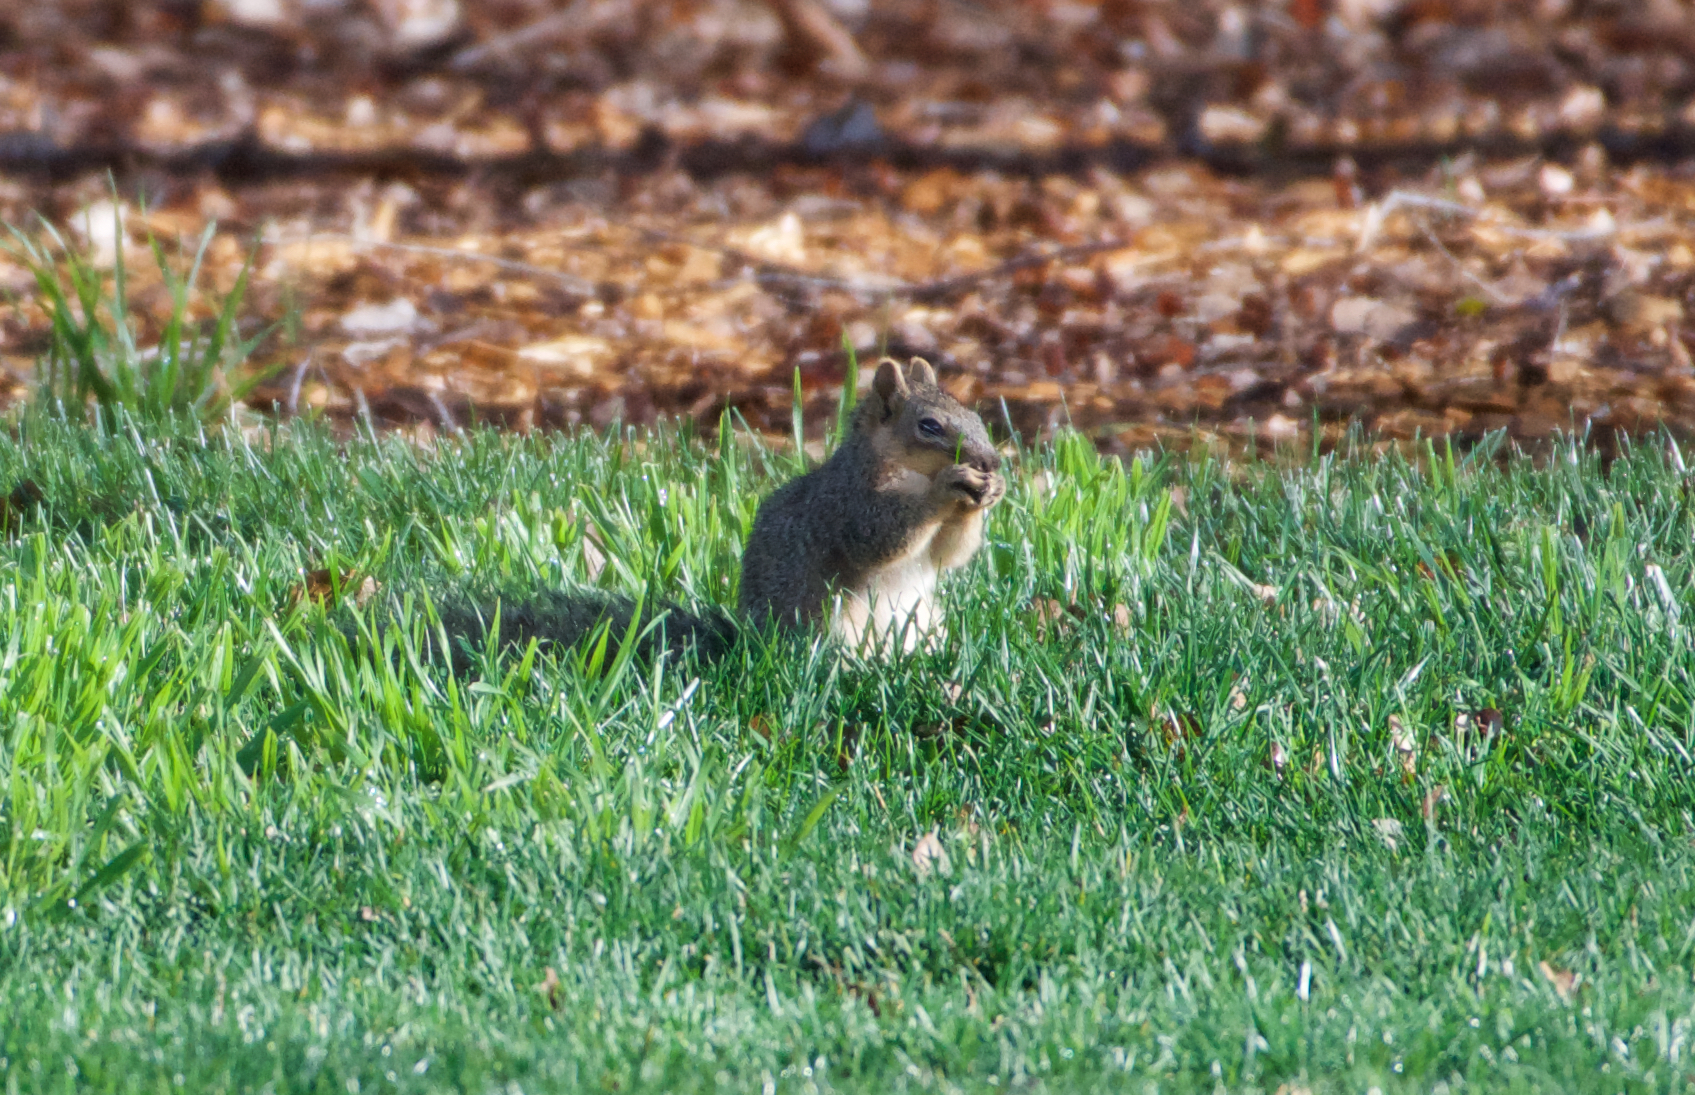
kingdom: Animalia
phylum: Chordata
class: Mammalia
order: Rodentia
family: Sciuridae
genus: Sciurus
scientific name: Sciurus niger
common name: Fox squirrel
